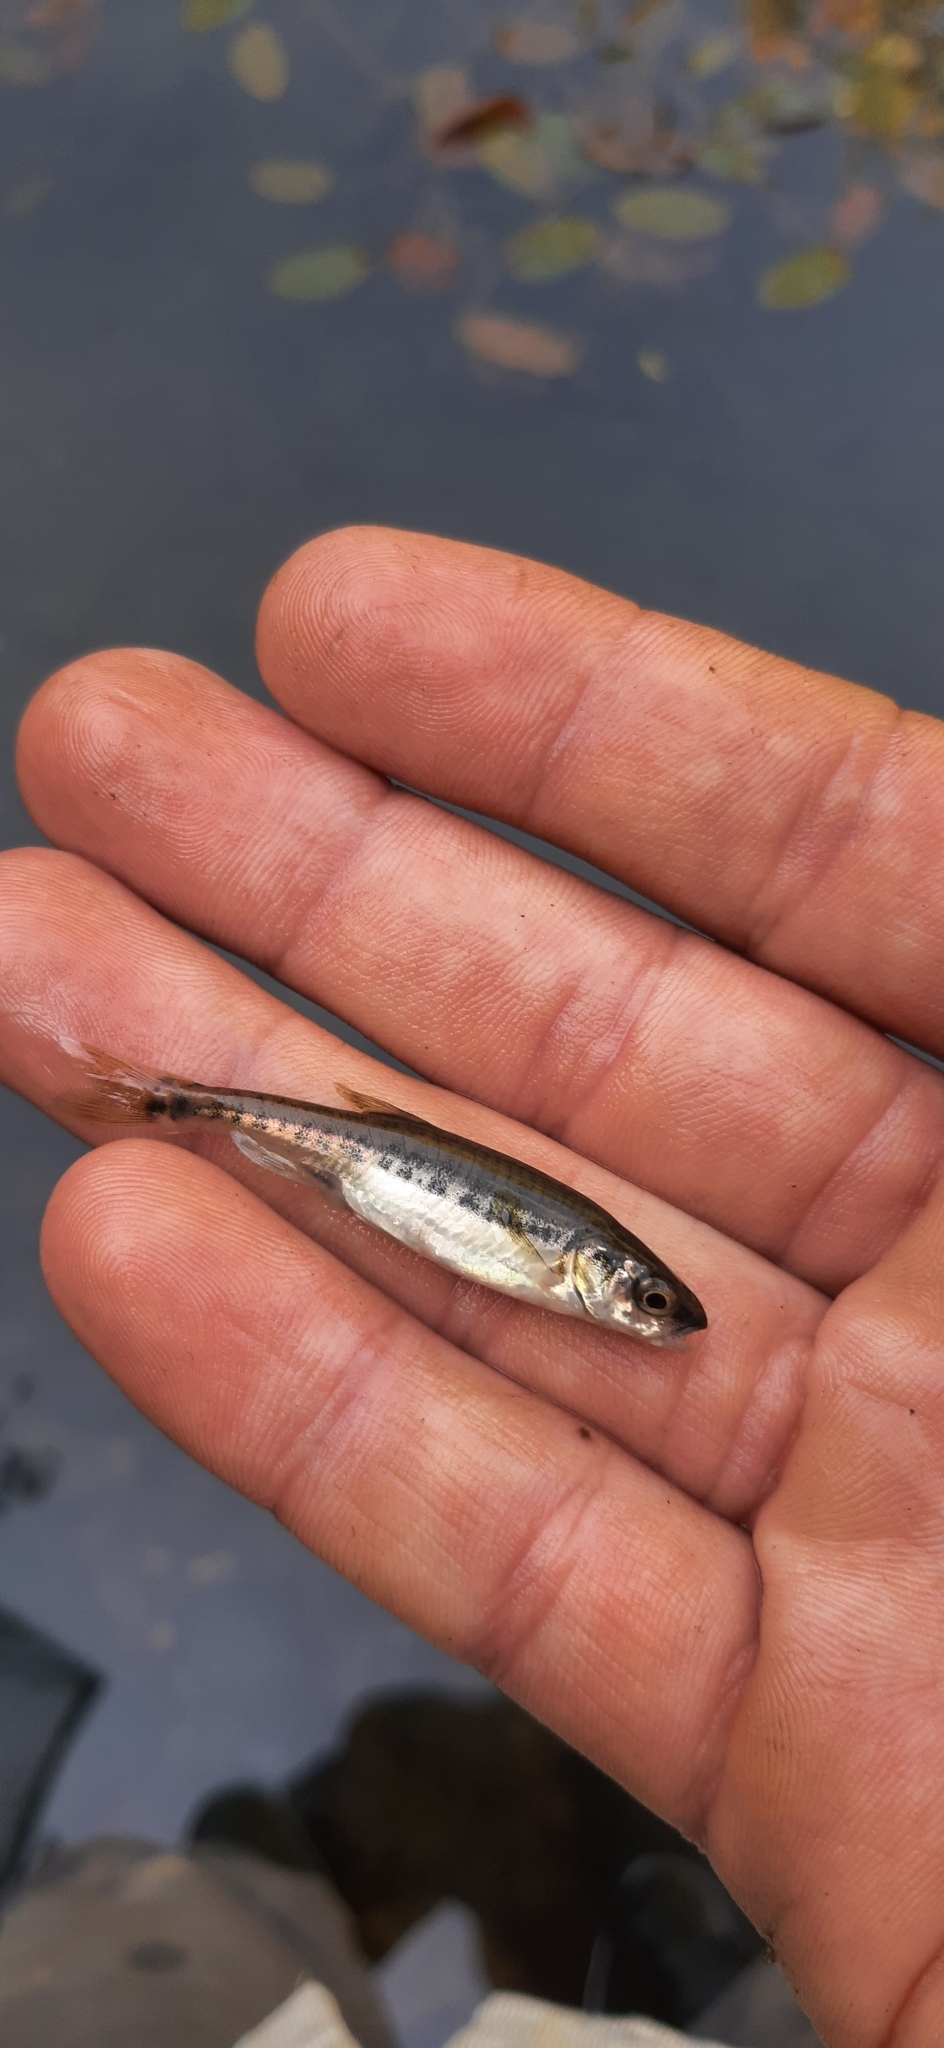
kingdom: Animalia
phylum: Chordata
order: Cypriniformes
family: Cyprinidae
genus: Phoxinus
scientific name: Phoxinus phoxinus
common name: Minnow
